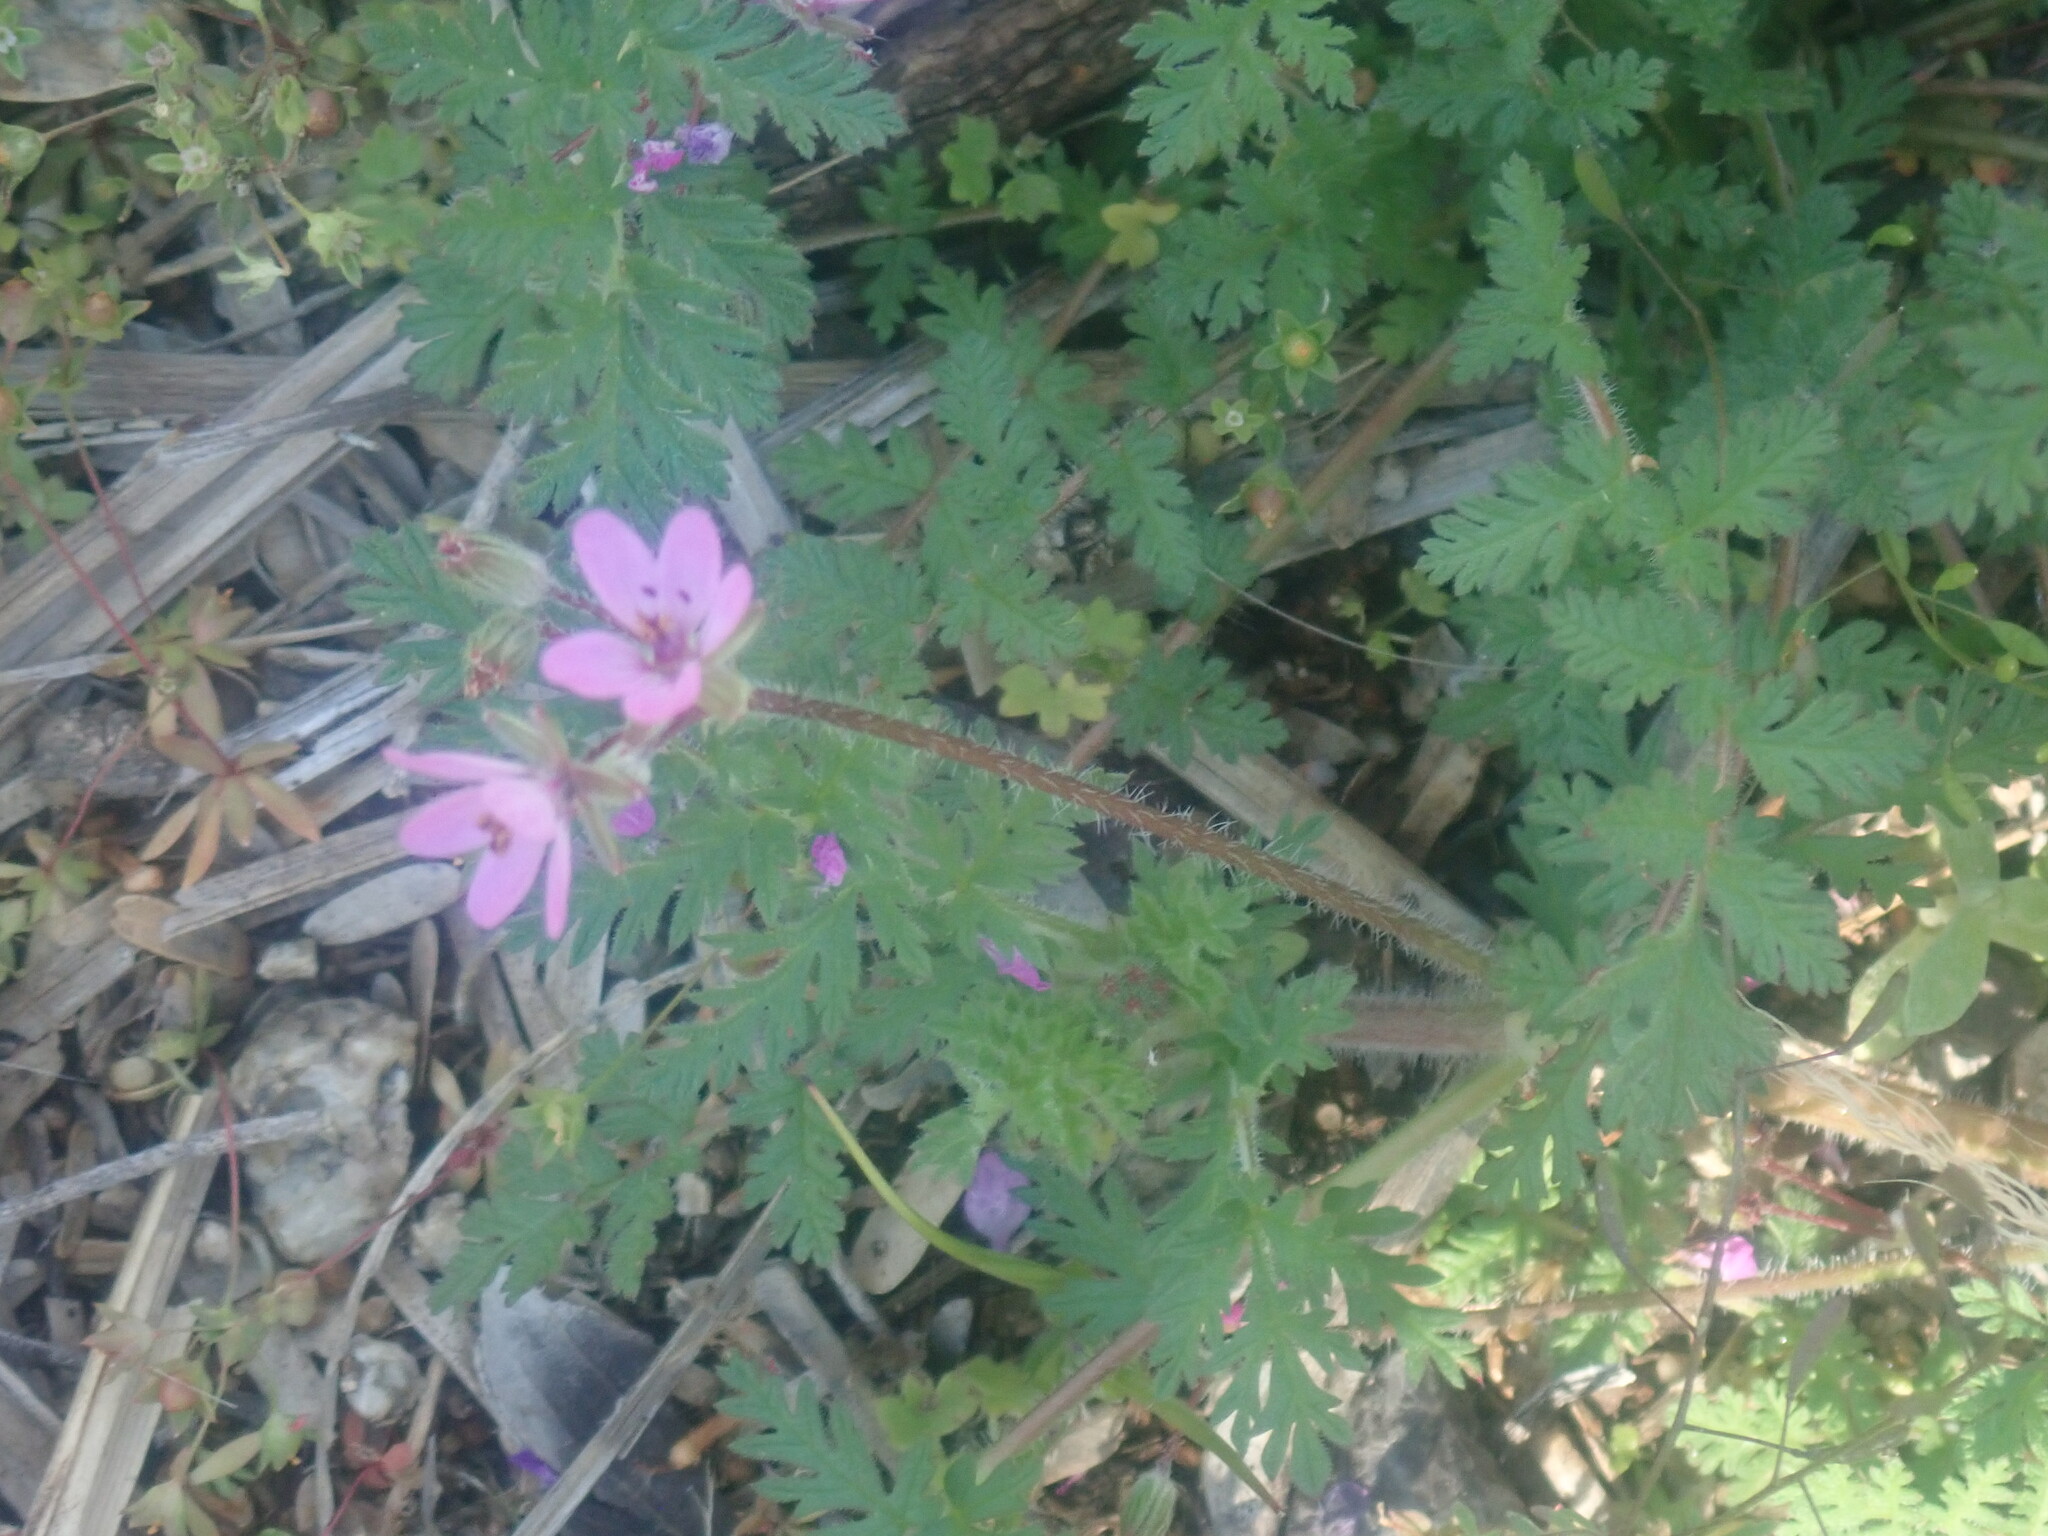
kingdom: Plantae
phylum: Tracheophyta
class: Magnoliopsida
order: Geraniales
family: Geraniaceae
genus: Erodium
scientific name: Erodium cicutarium
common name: Common stork's-bill
